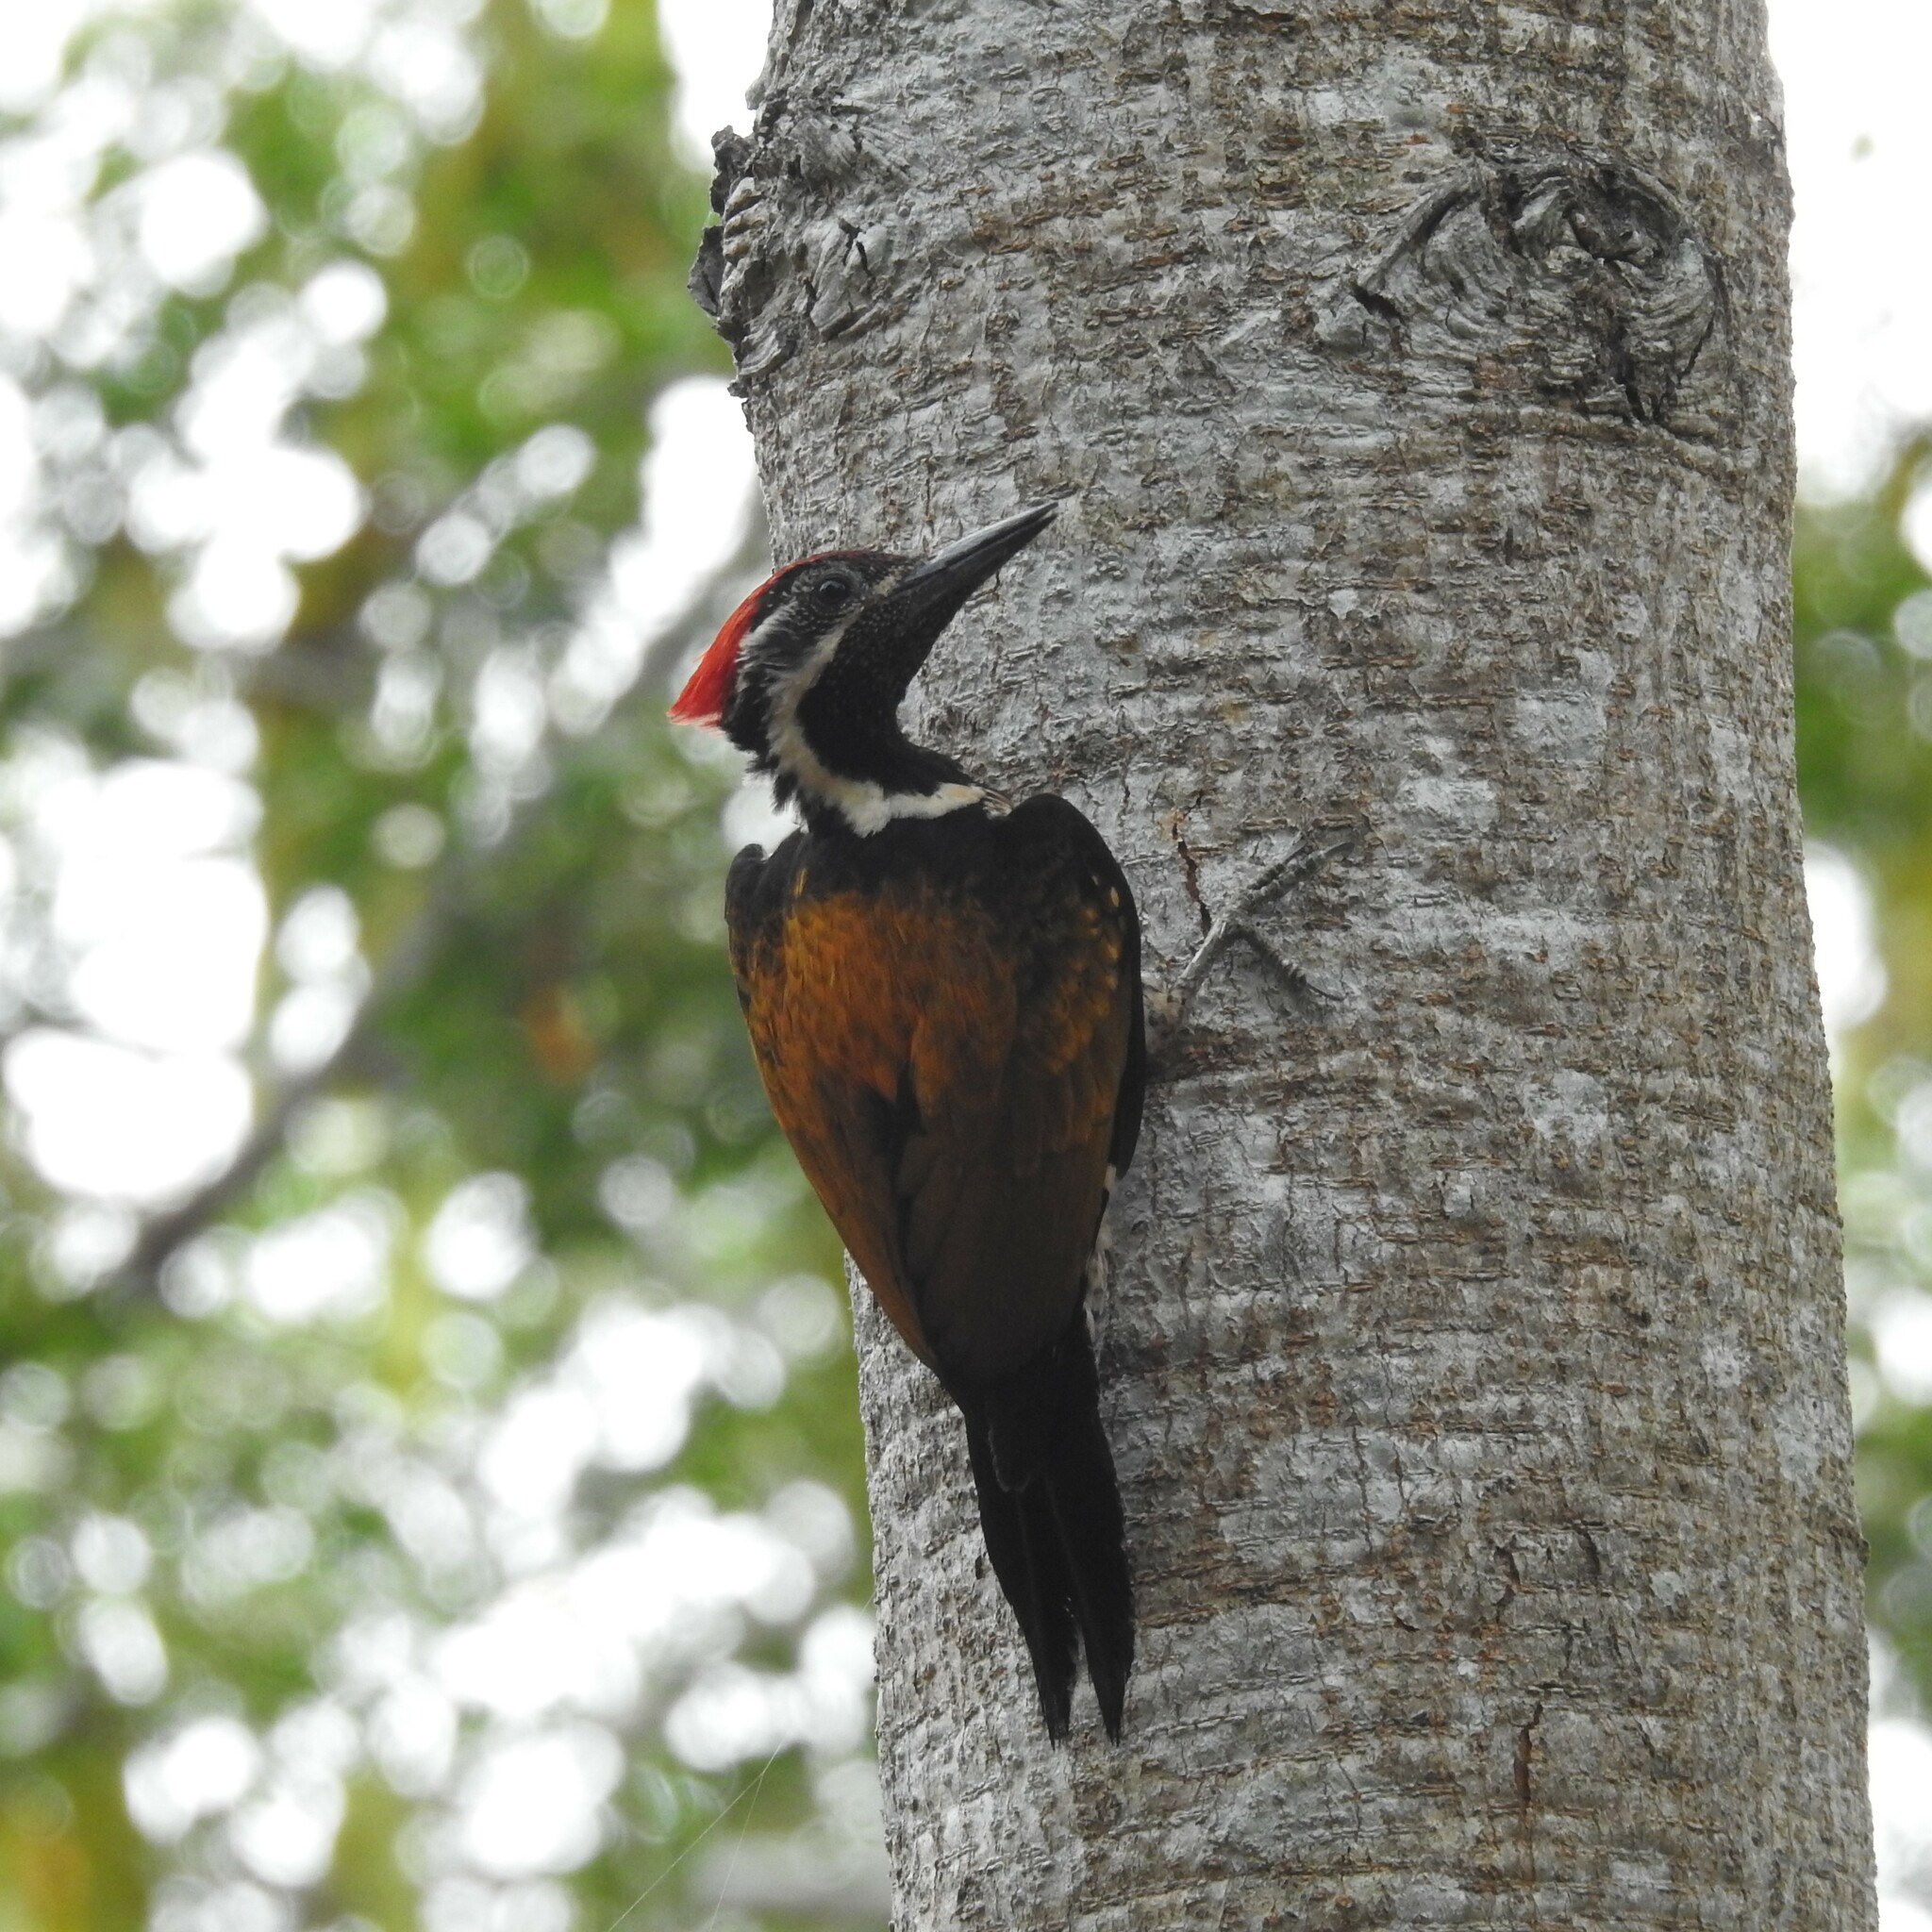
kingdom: Animalia
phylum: Chordata
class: Aves
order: Piciformes
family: Picidae
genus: Dinopium
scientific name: Dinopium benghalense
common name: Black-rumped flameback
